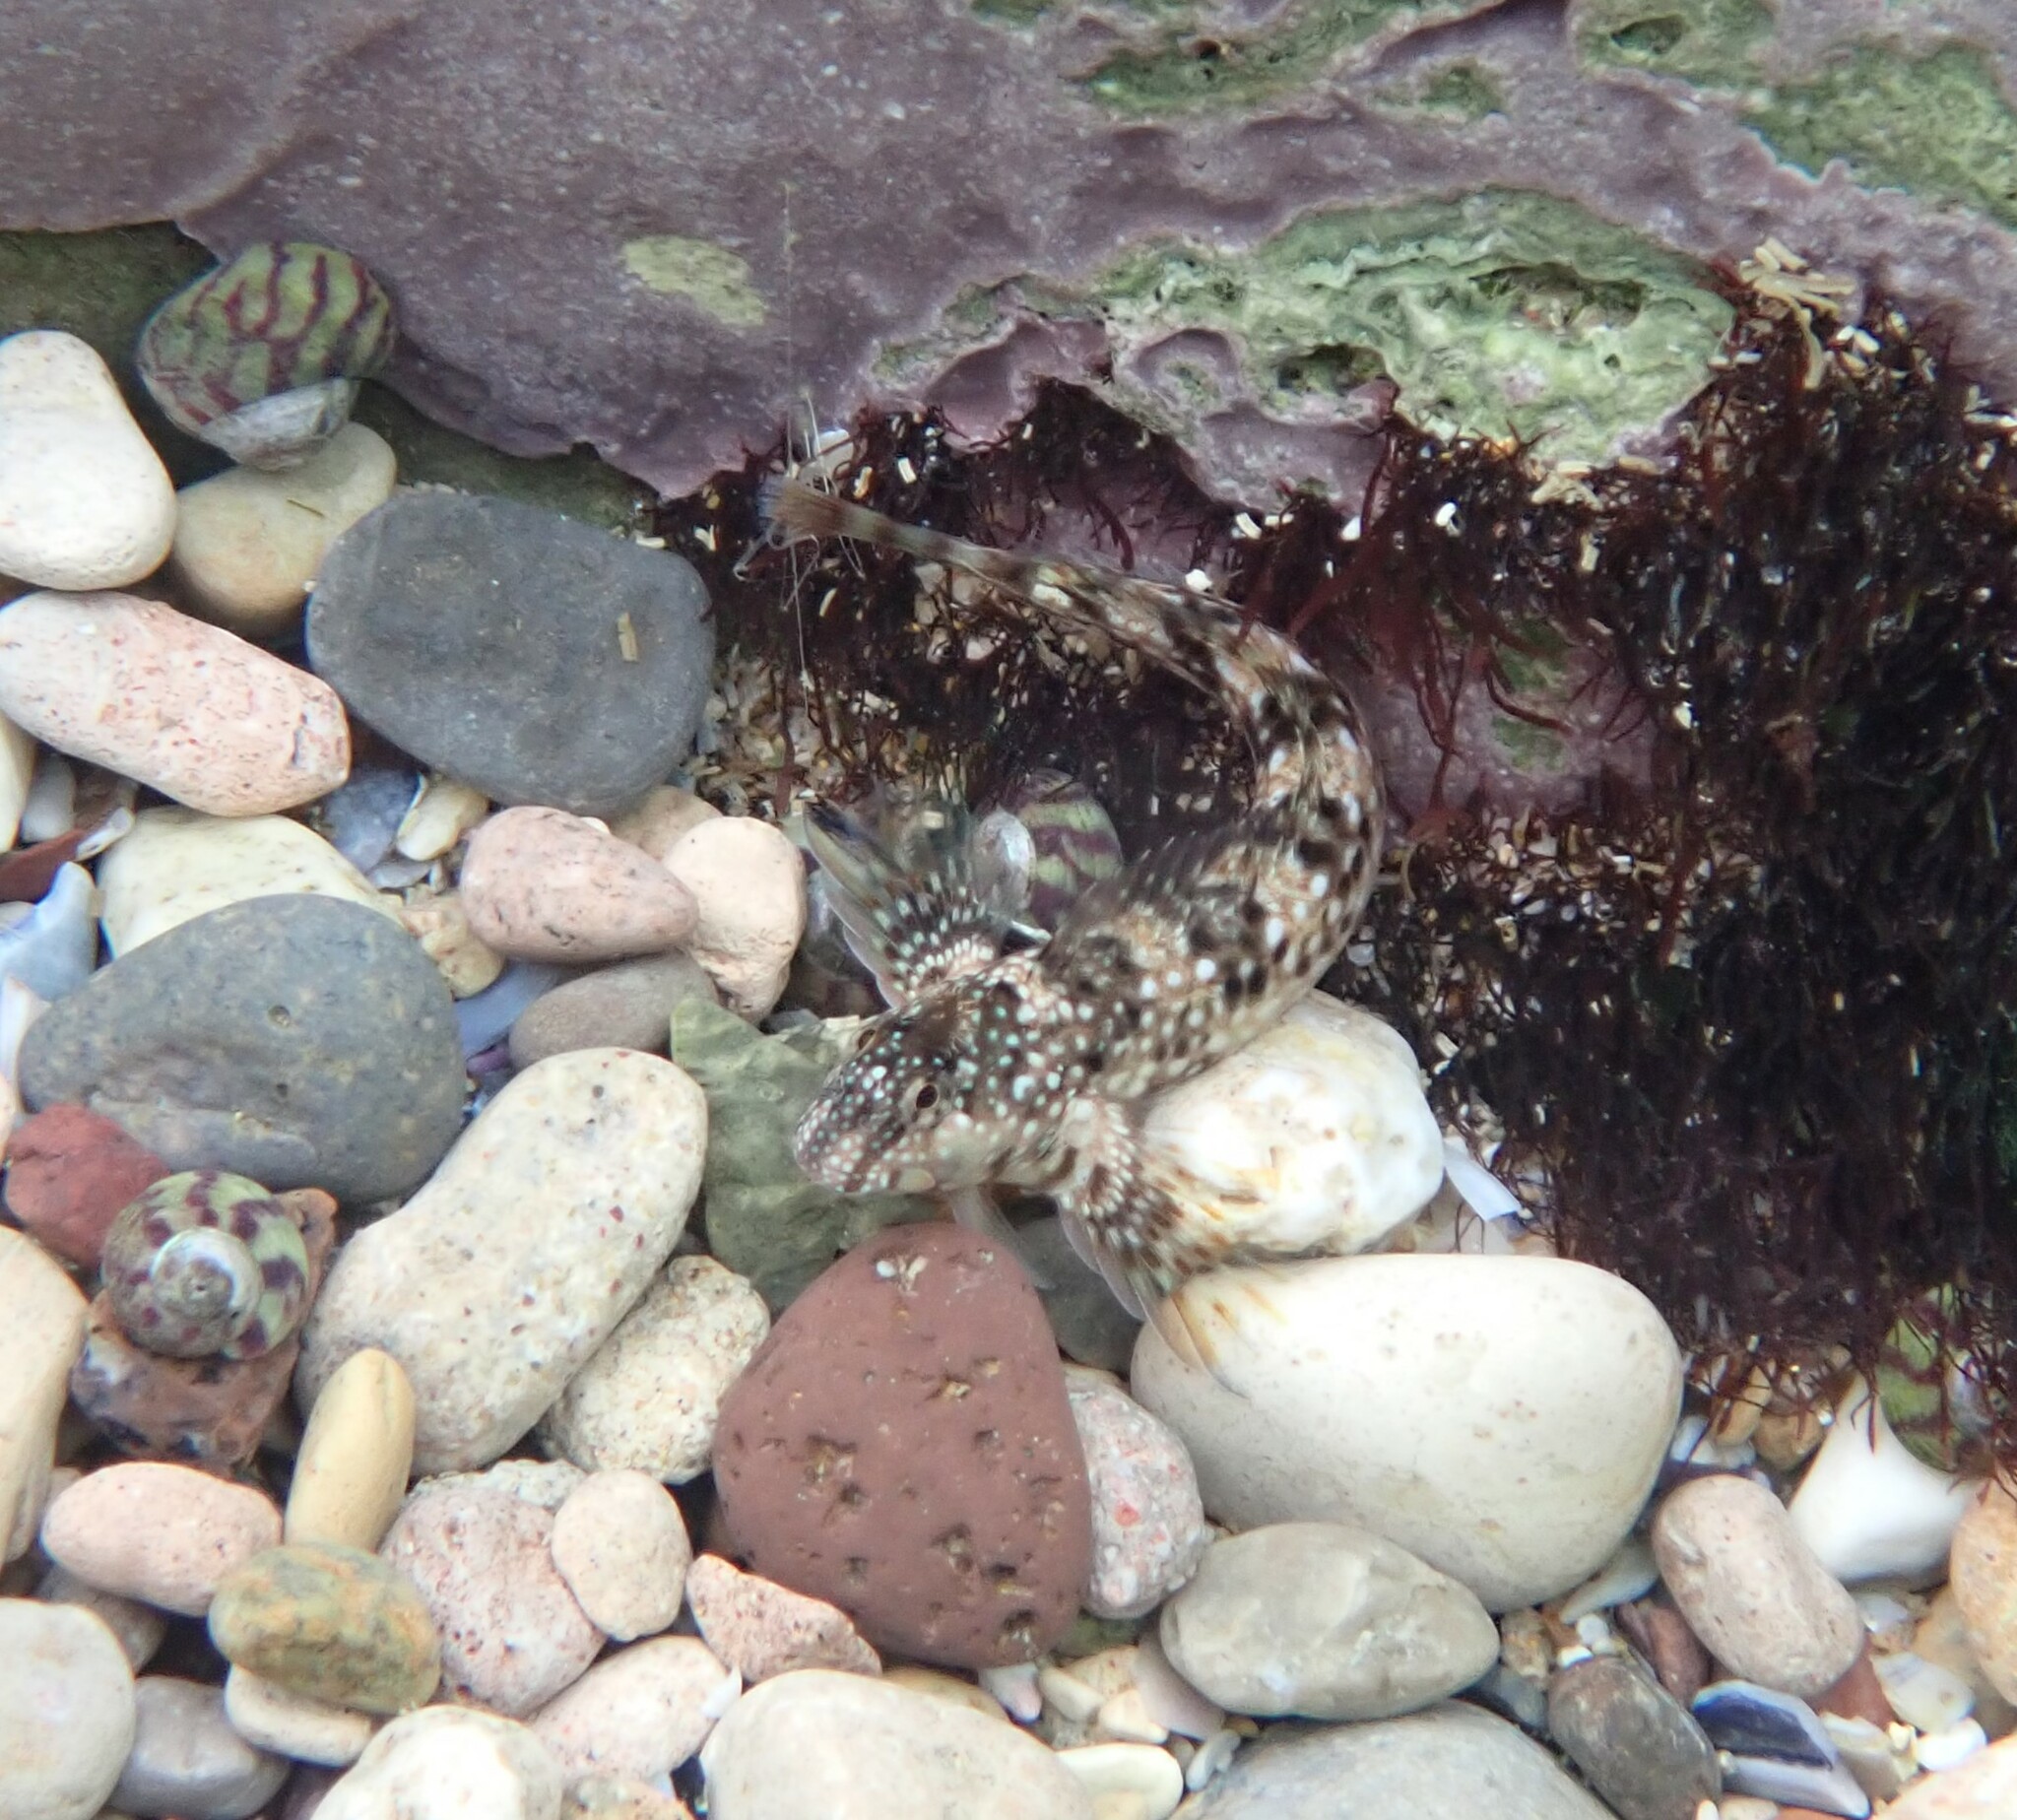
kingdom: Animalia
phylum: Chordata
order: Perciformes
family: Blenniidae
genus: Coryphoblennius
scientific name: Coryphoblennius galerita
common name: Montagu's blenny
